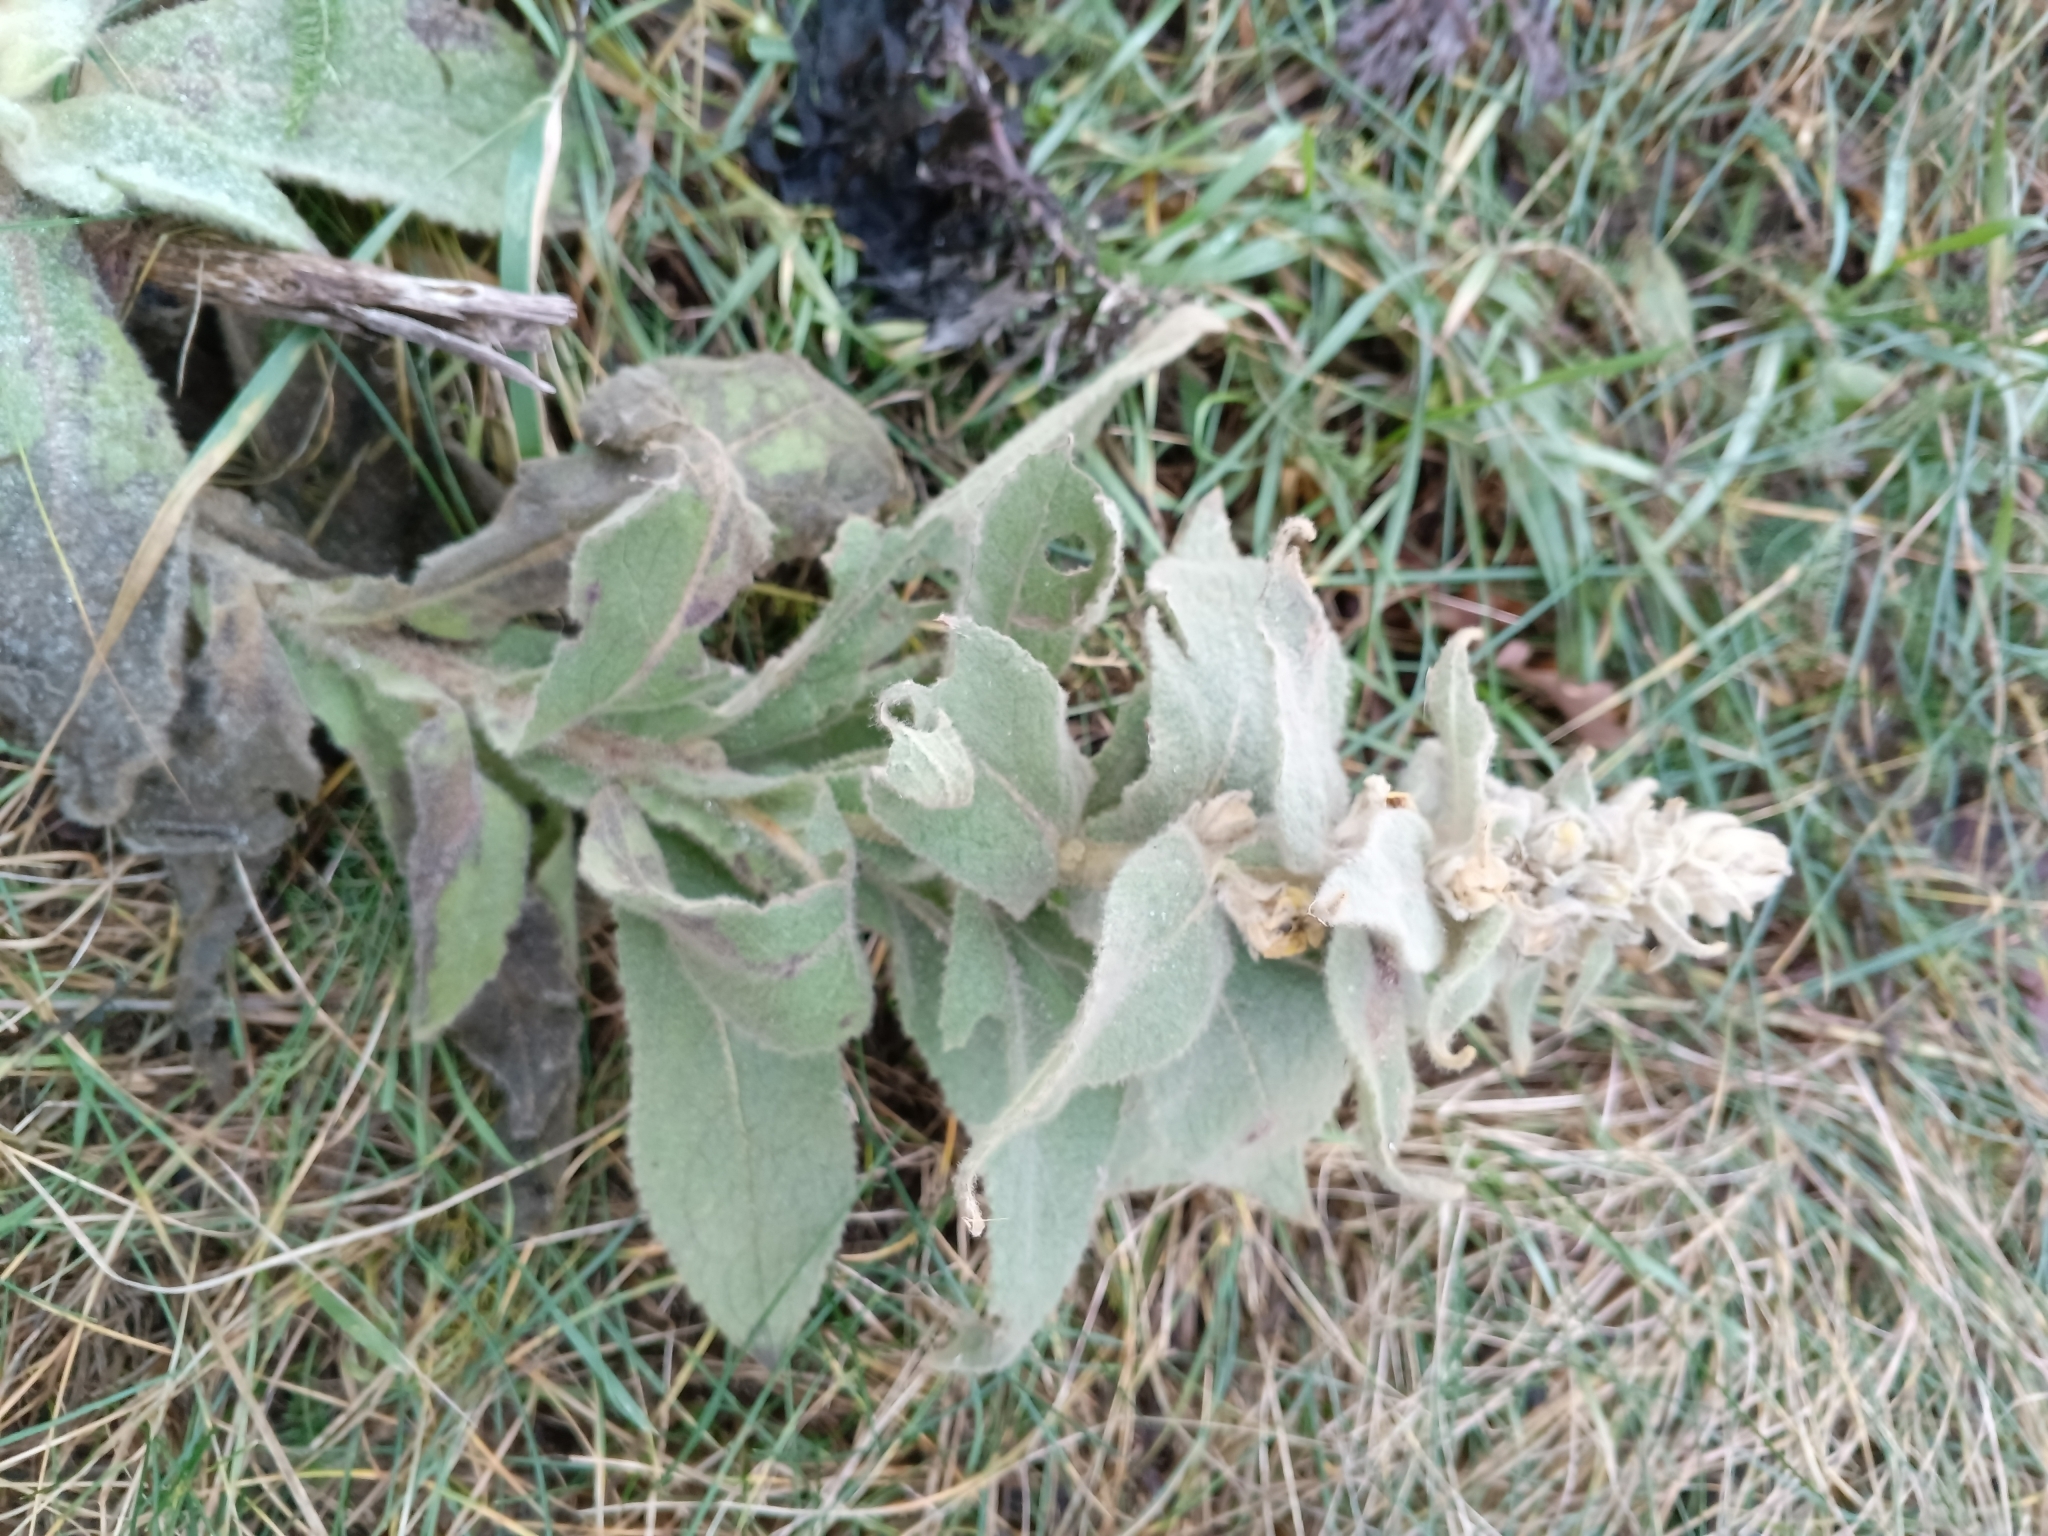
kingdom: Plantae
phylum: Tracheophyta
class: Magnoliopsida
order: Lamiales
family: Scrophulariaceae
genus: Verbascum
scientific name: Verbascum thapsus
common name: Common mullein
